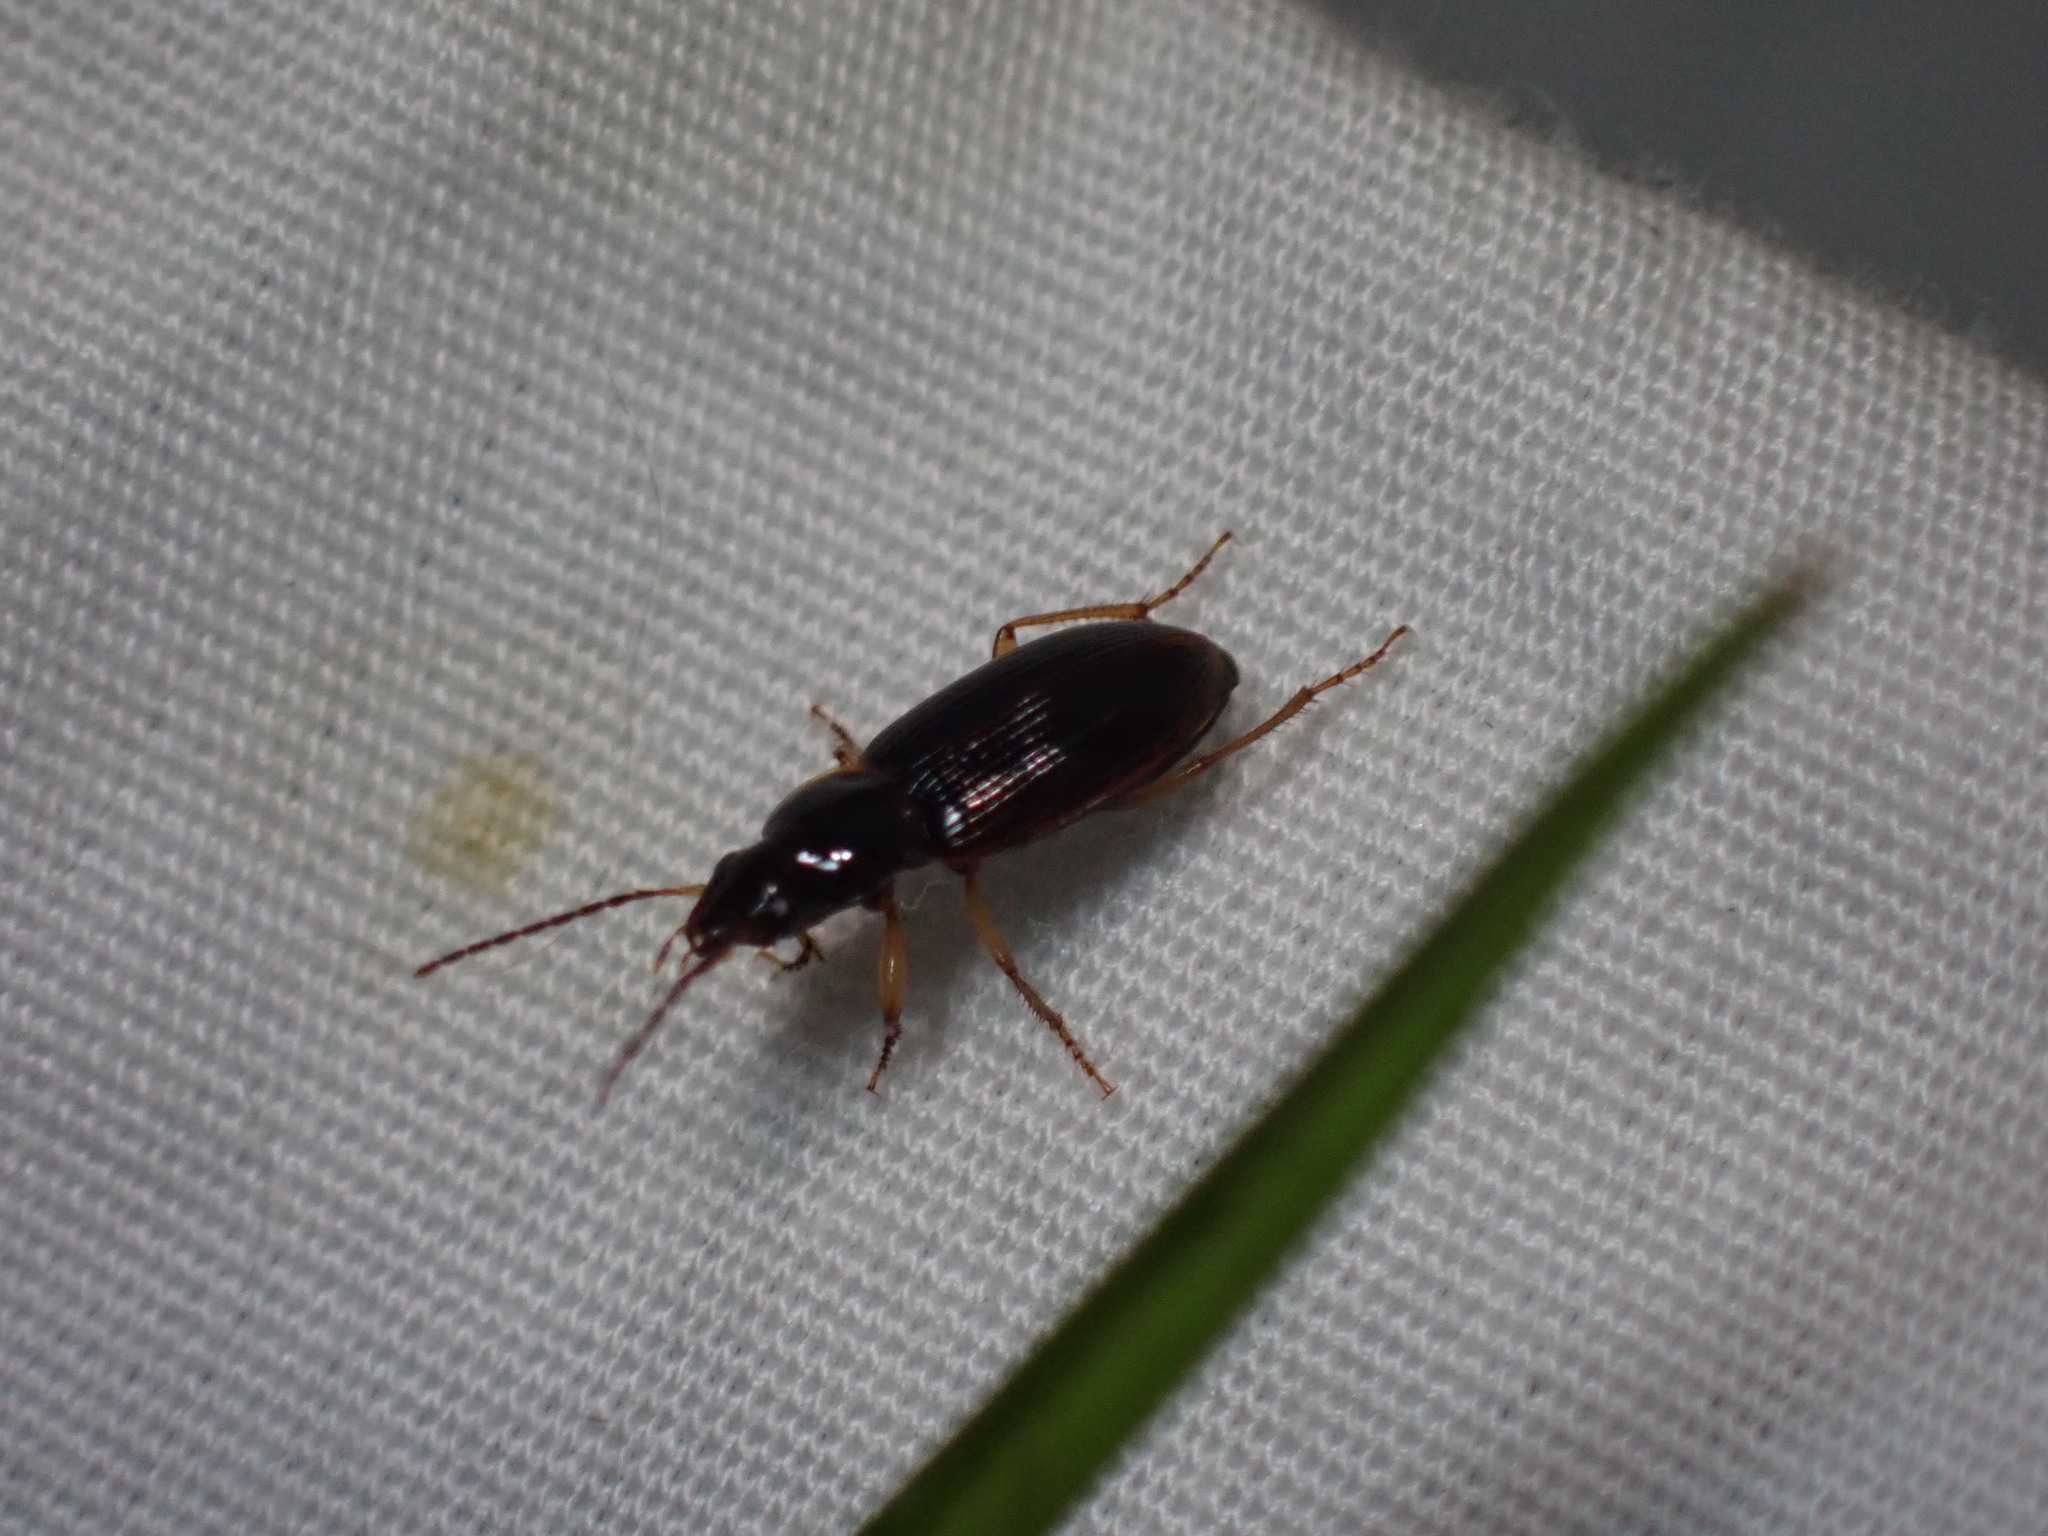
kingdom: Animalia
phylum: Arthropoda
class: Insecta
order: Coleoptera
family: Carabidae
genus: Stenolophus
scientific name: Stenolophus ochropezus
